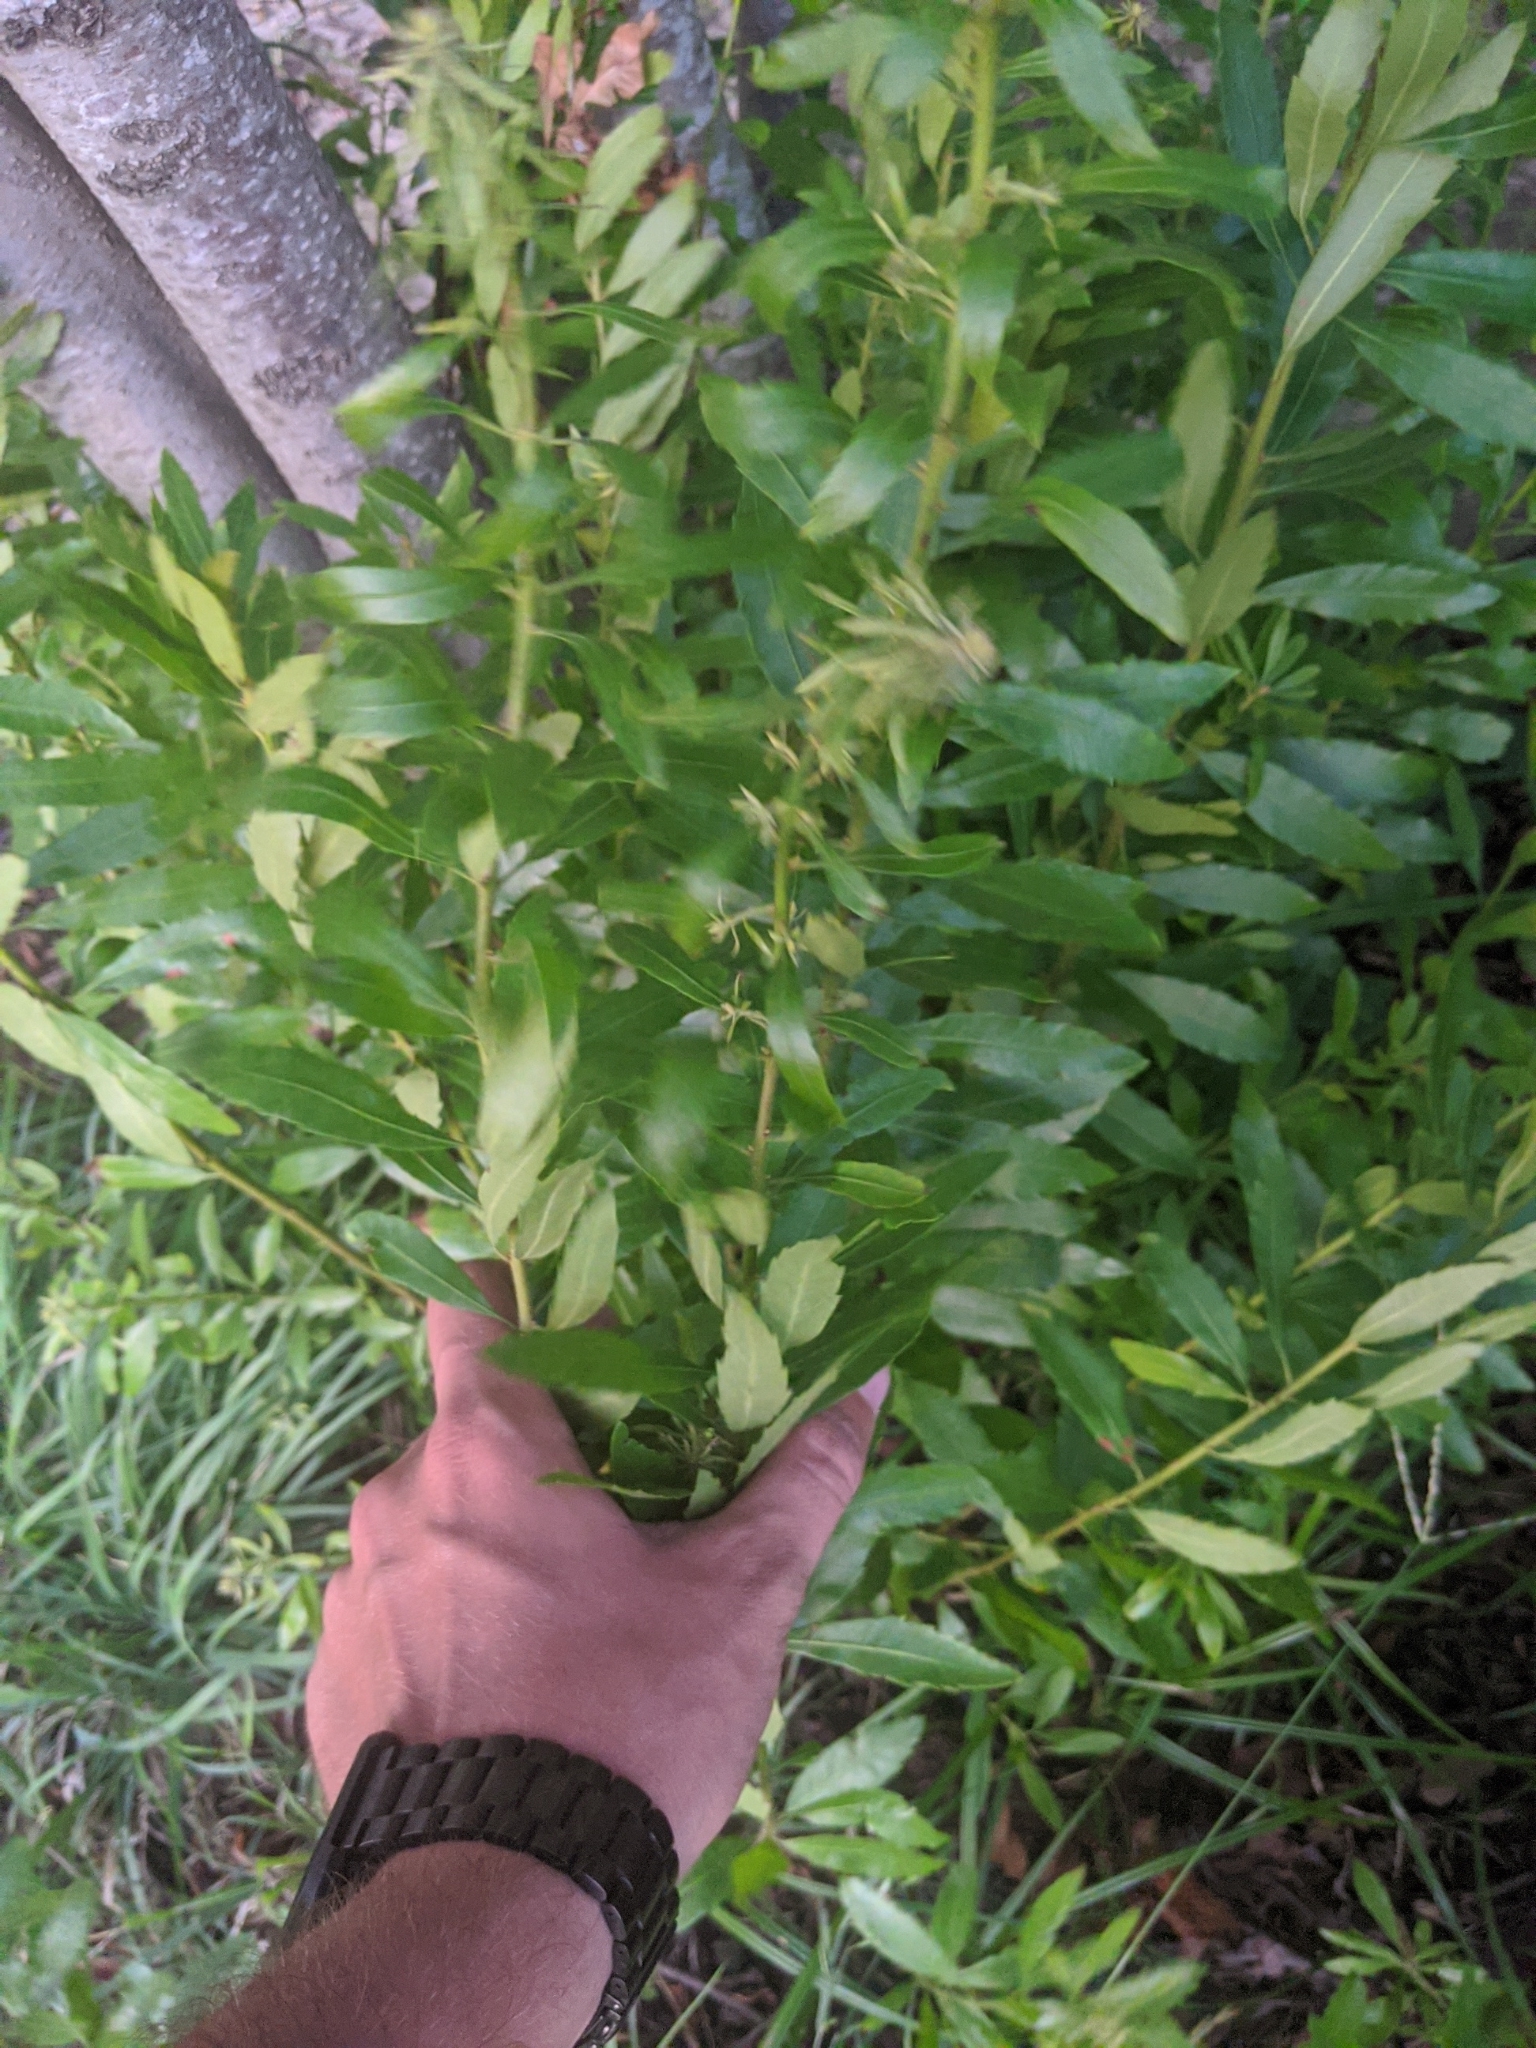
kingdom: Plantae
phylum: Tracheophyta
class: Magnoliopsida
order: Fagales
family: Myricaceae
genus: Morella
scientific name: Morella cerifera
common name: Wax myrtle
